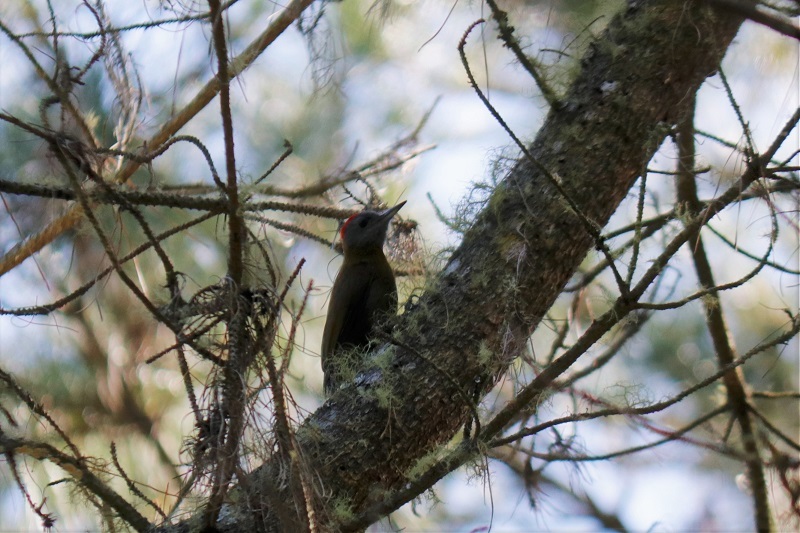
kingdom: Animalia
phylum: Chordata
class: Aves
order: Piciformes
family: Picidae
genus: Dendropicos
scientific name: Dendropicos griseocephalus
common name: Olive woodpecker
